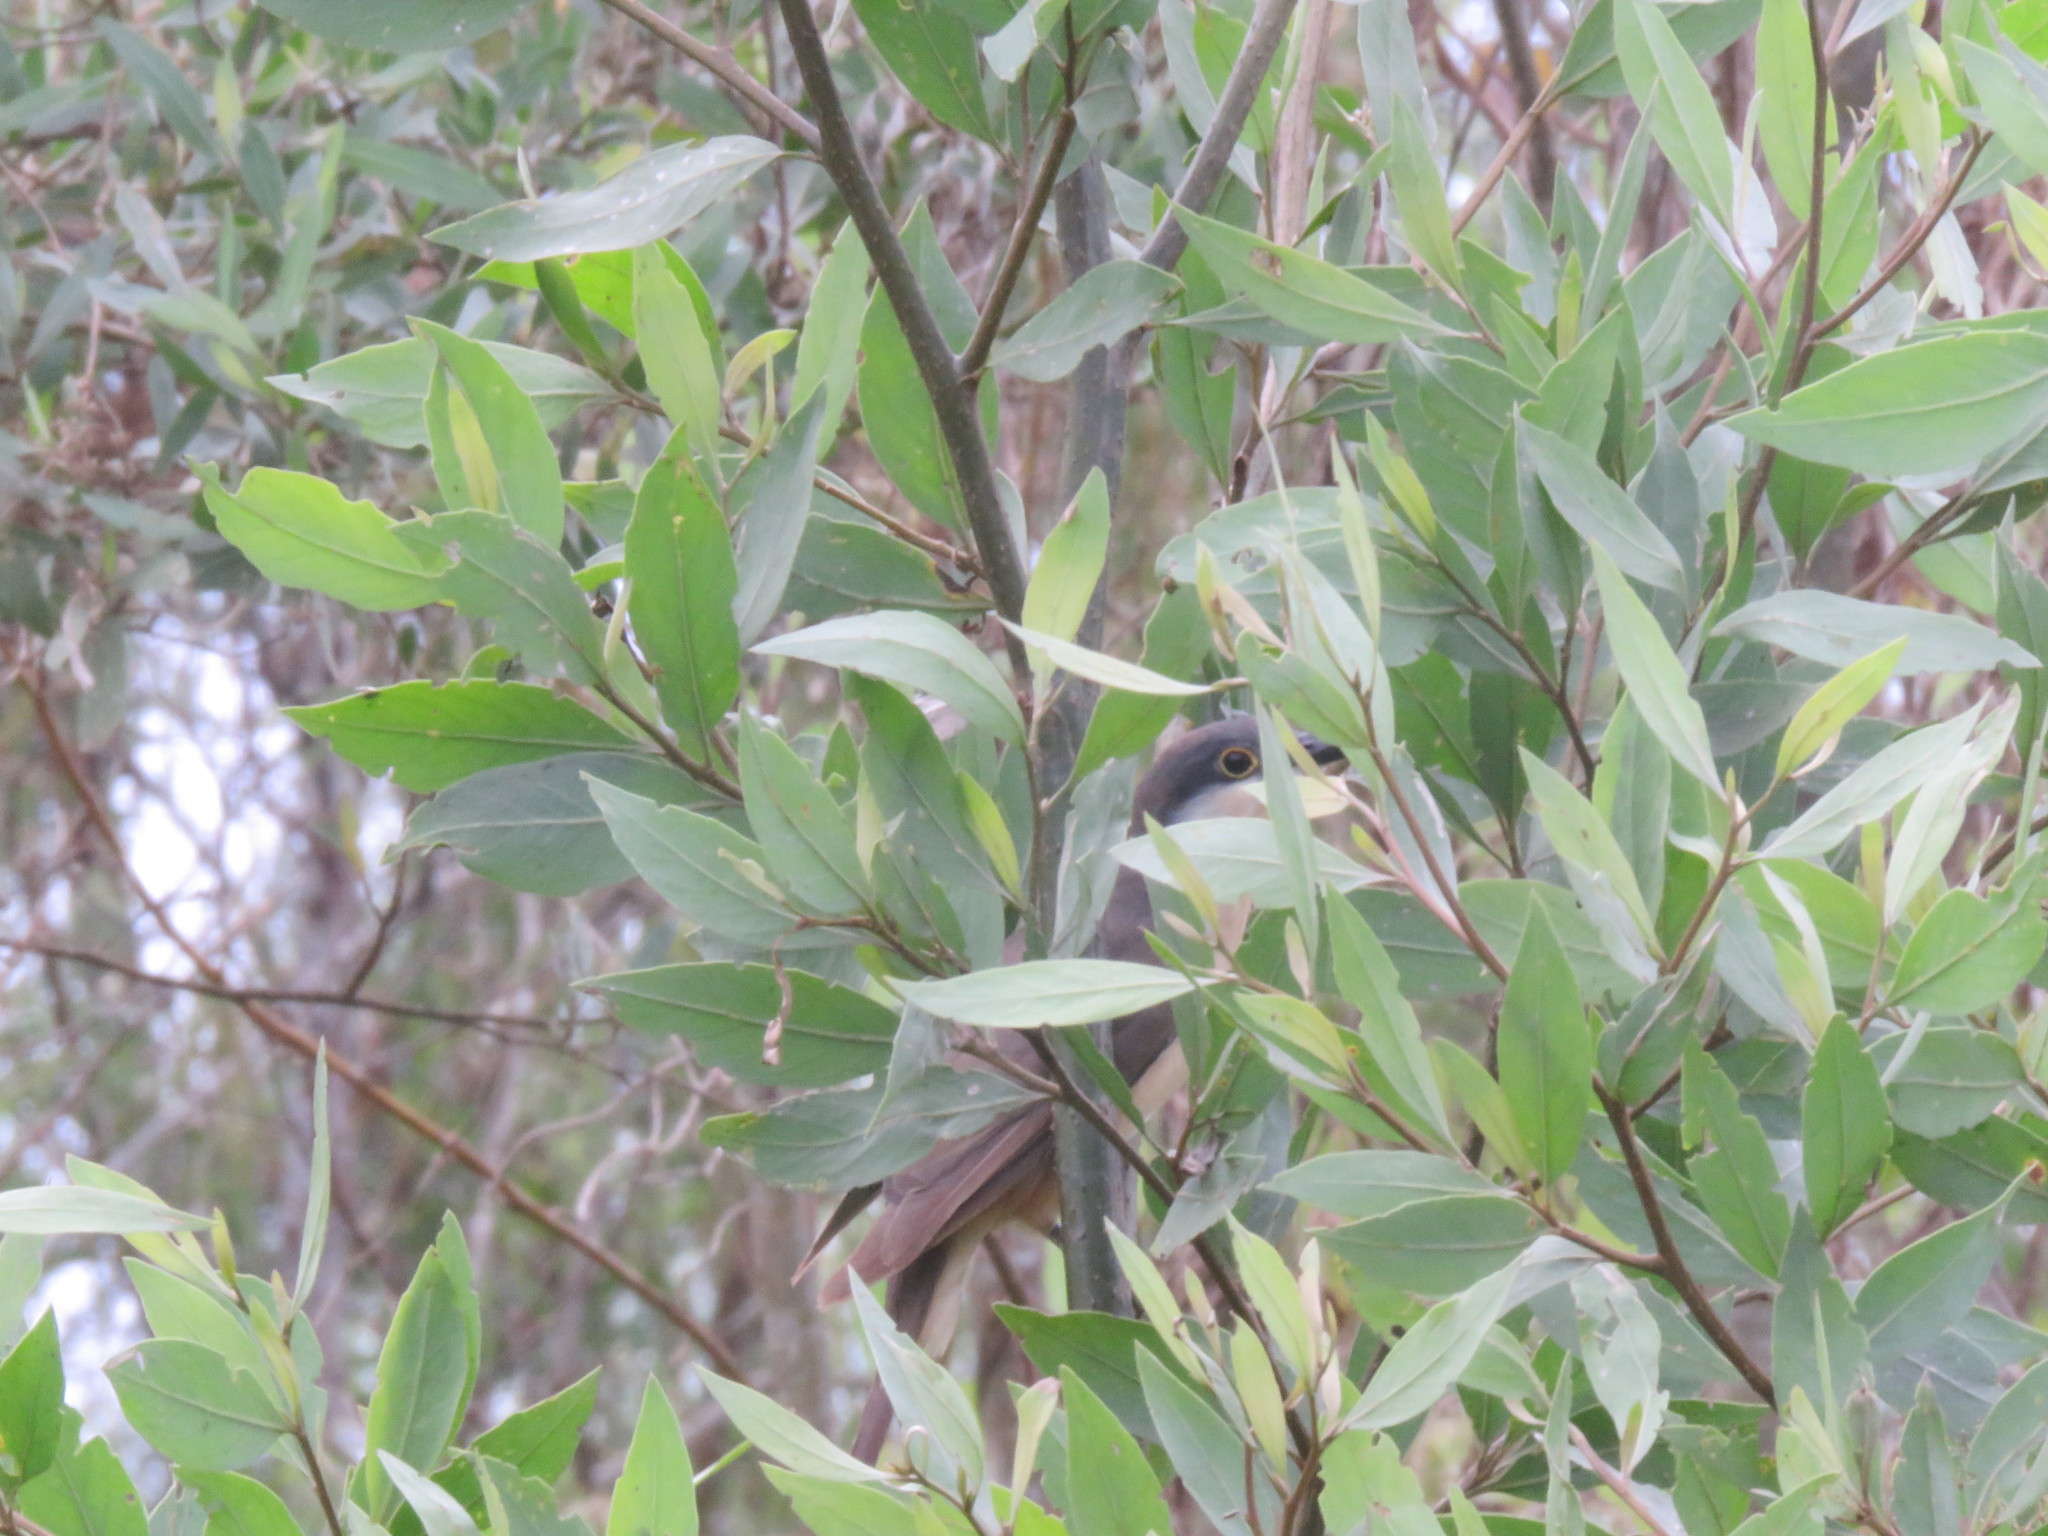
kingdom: Animalia
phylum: Chordata
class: Aves
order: Cuculiformes
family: Cuculidae
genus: Coccyzus
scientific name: Coccyzus melacoryphus
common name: Dark-billed cuckoo
